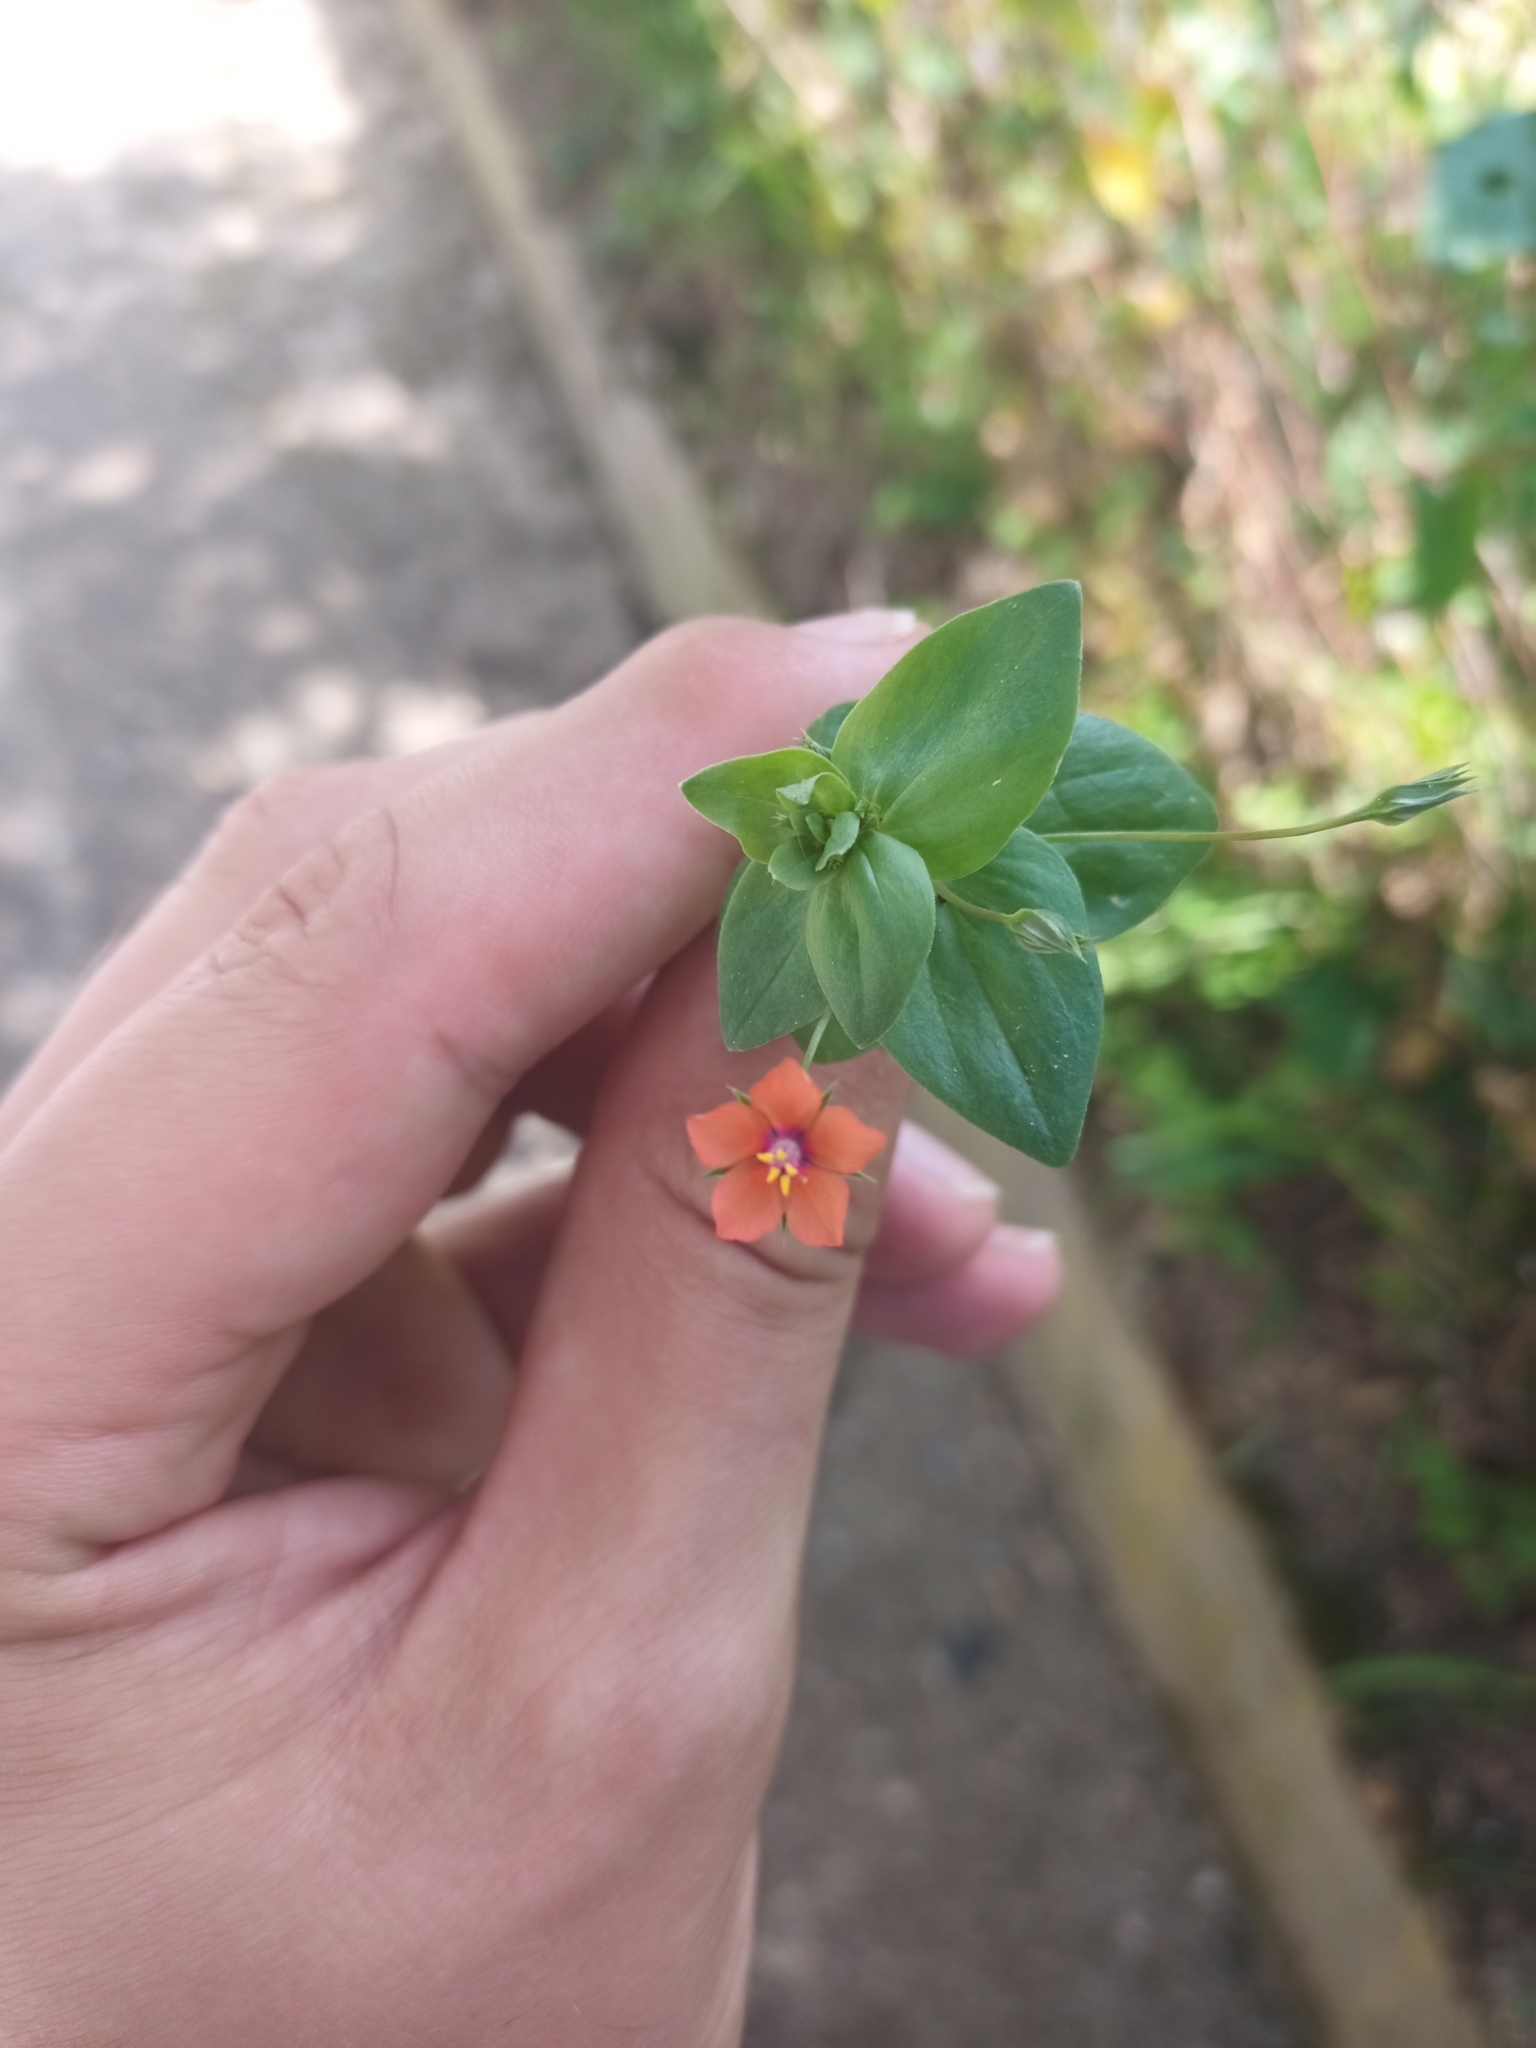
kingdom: Plantae
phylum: Tracheophyta
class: Magnoliopsida
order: Ericales
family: Primulaceae
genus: Lysimachia
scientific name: Lysimachia arvensis
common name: Scarlet pimpernel
